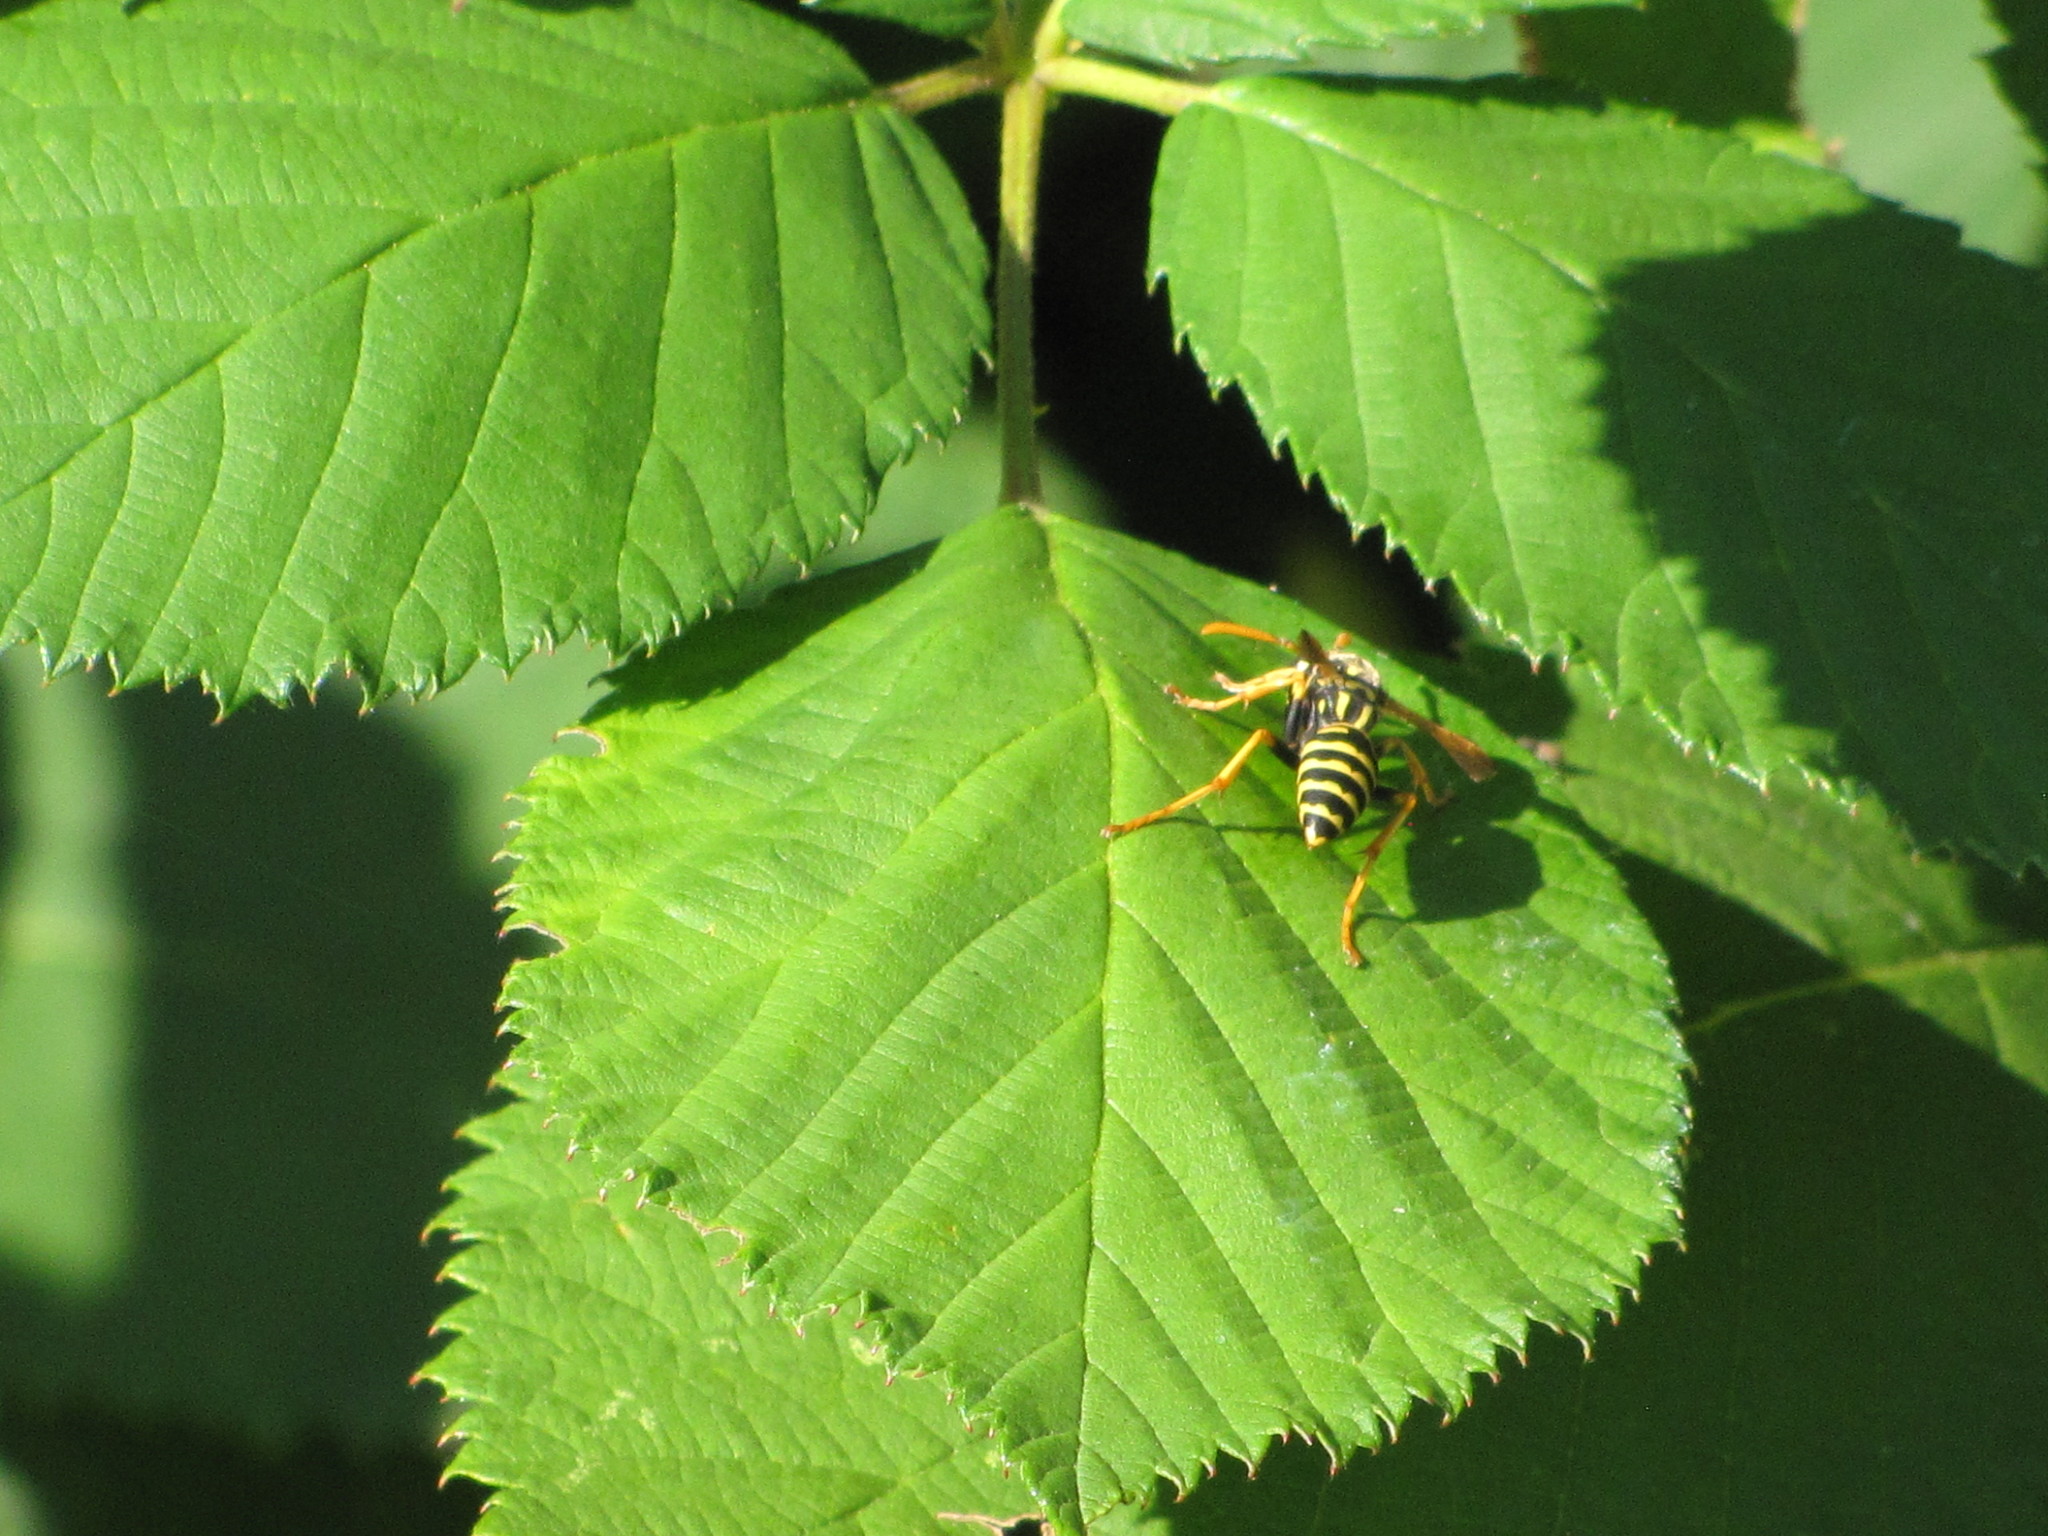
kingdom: Animalia
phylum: Arthropoda
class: Insecta
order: Hymenoptera
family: Eumenidae
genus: Polistes
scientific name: Polistes dominula
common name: Paper wasp
